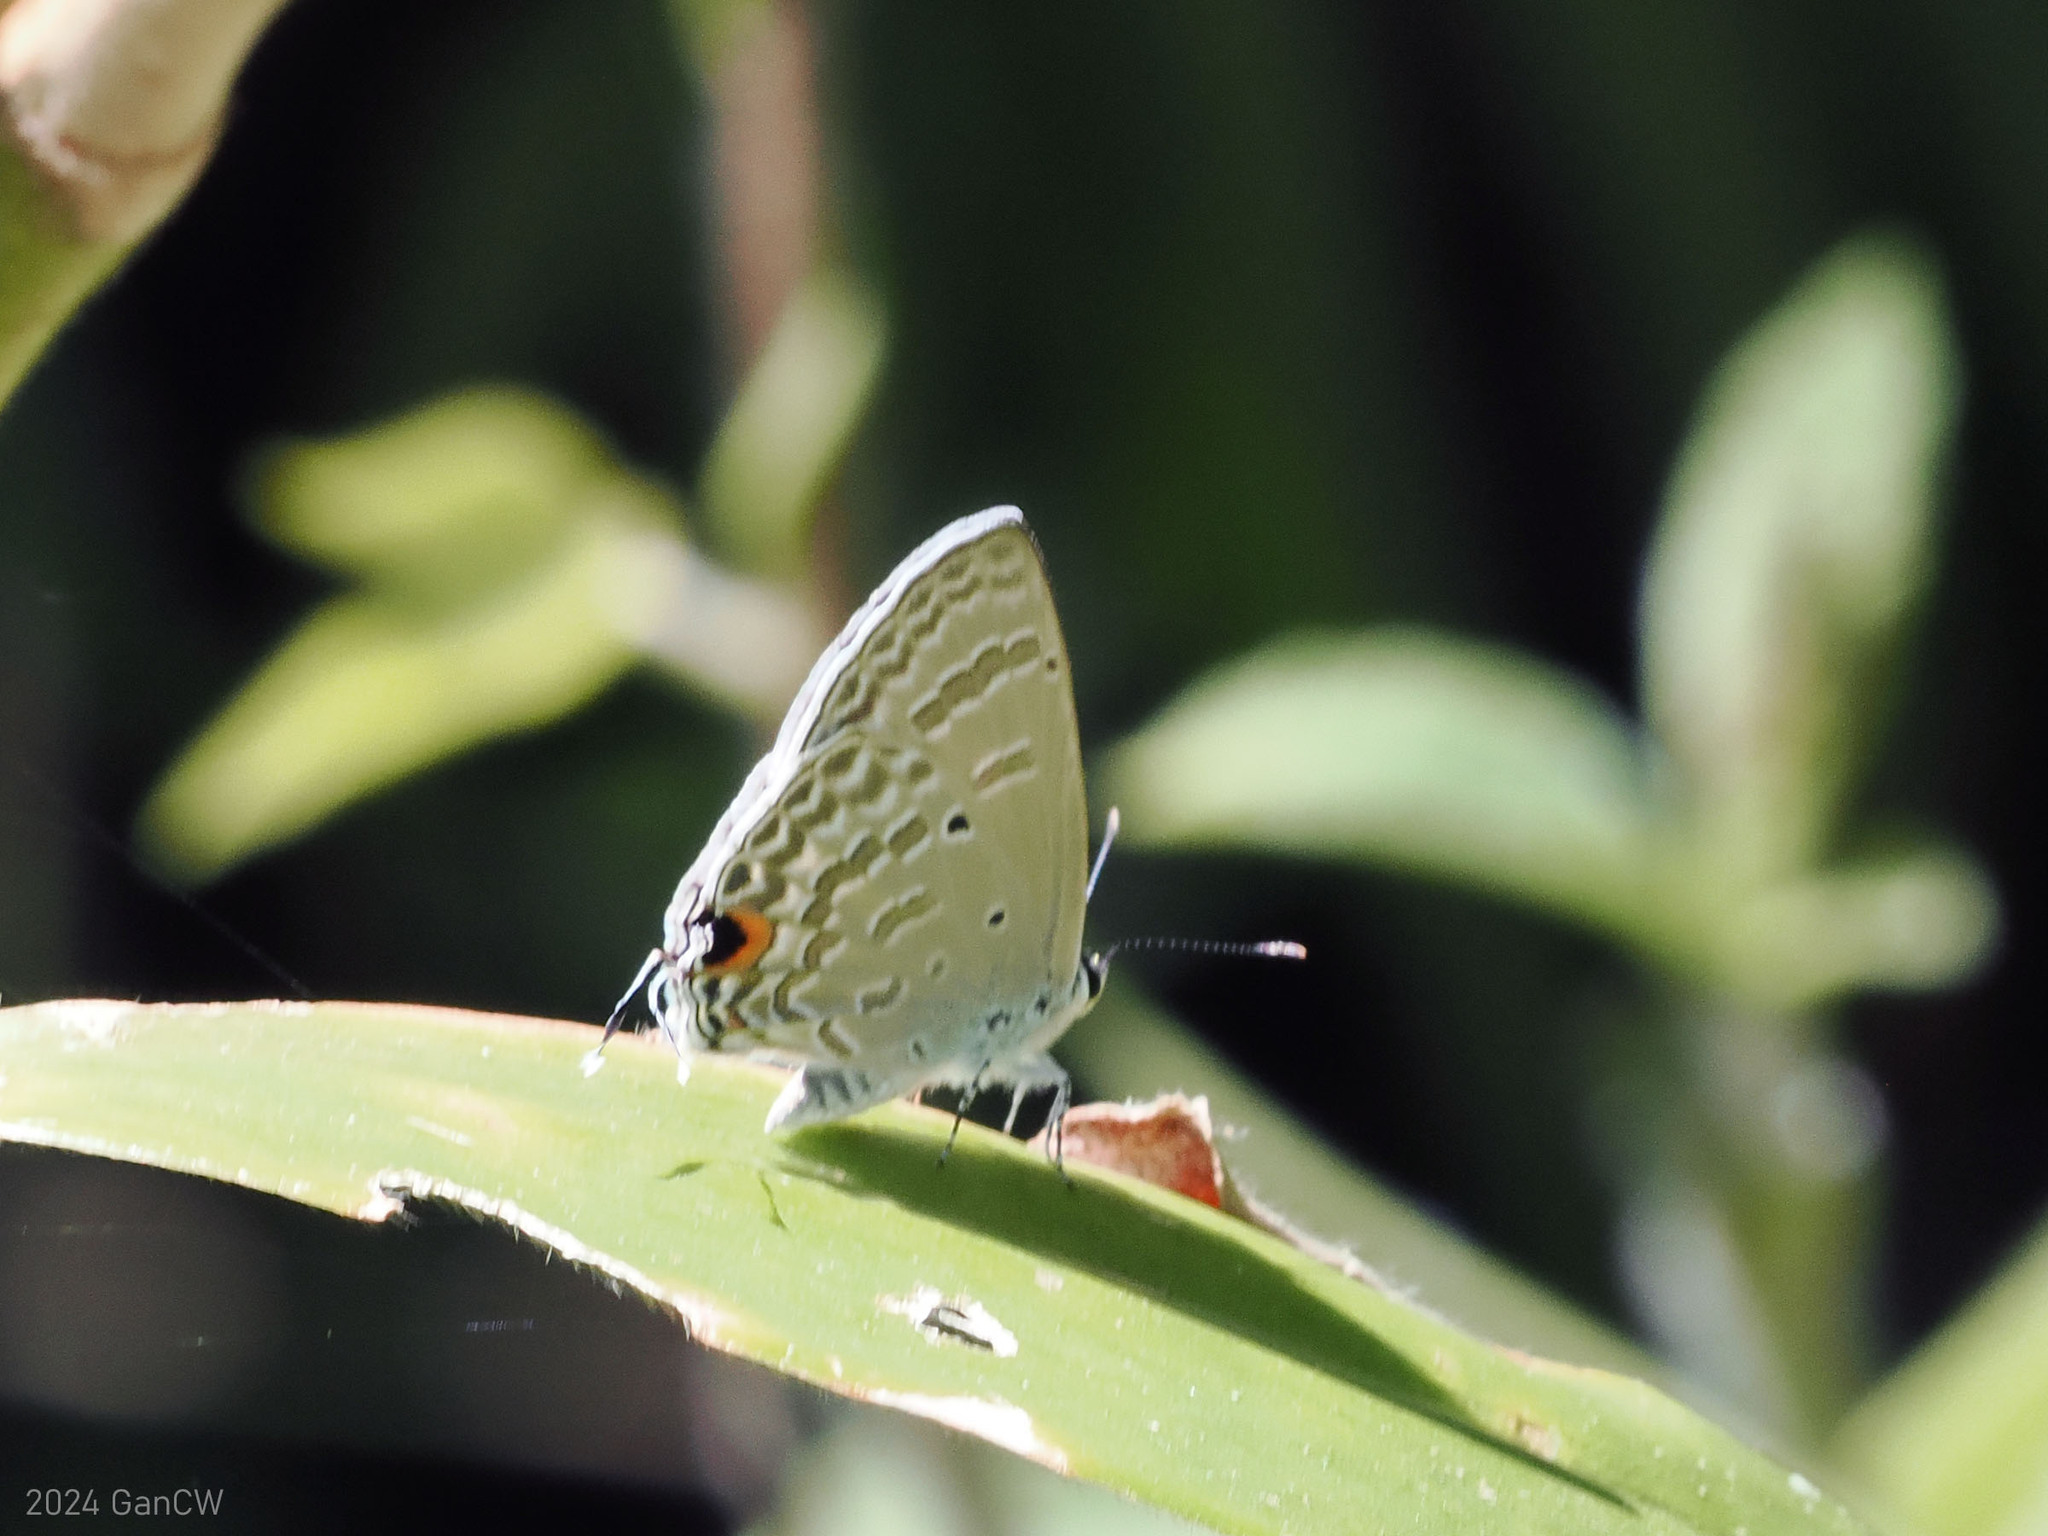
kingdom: Animalia
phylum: Arthropoda
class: Insecta
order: Lepidoptera
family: Lycaenidae
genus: Catochrysops
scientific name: Catochrysops panormus
